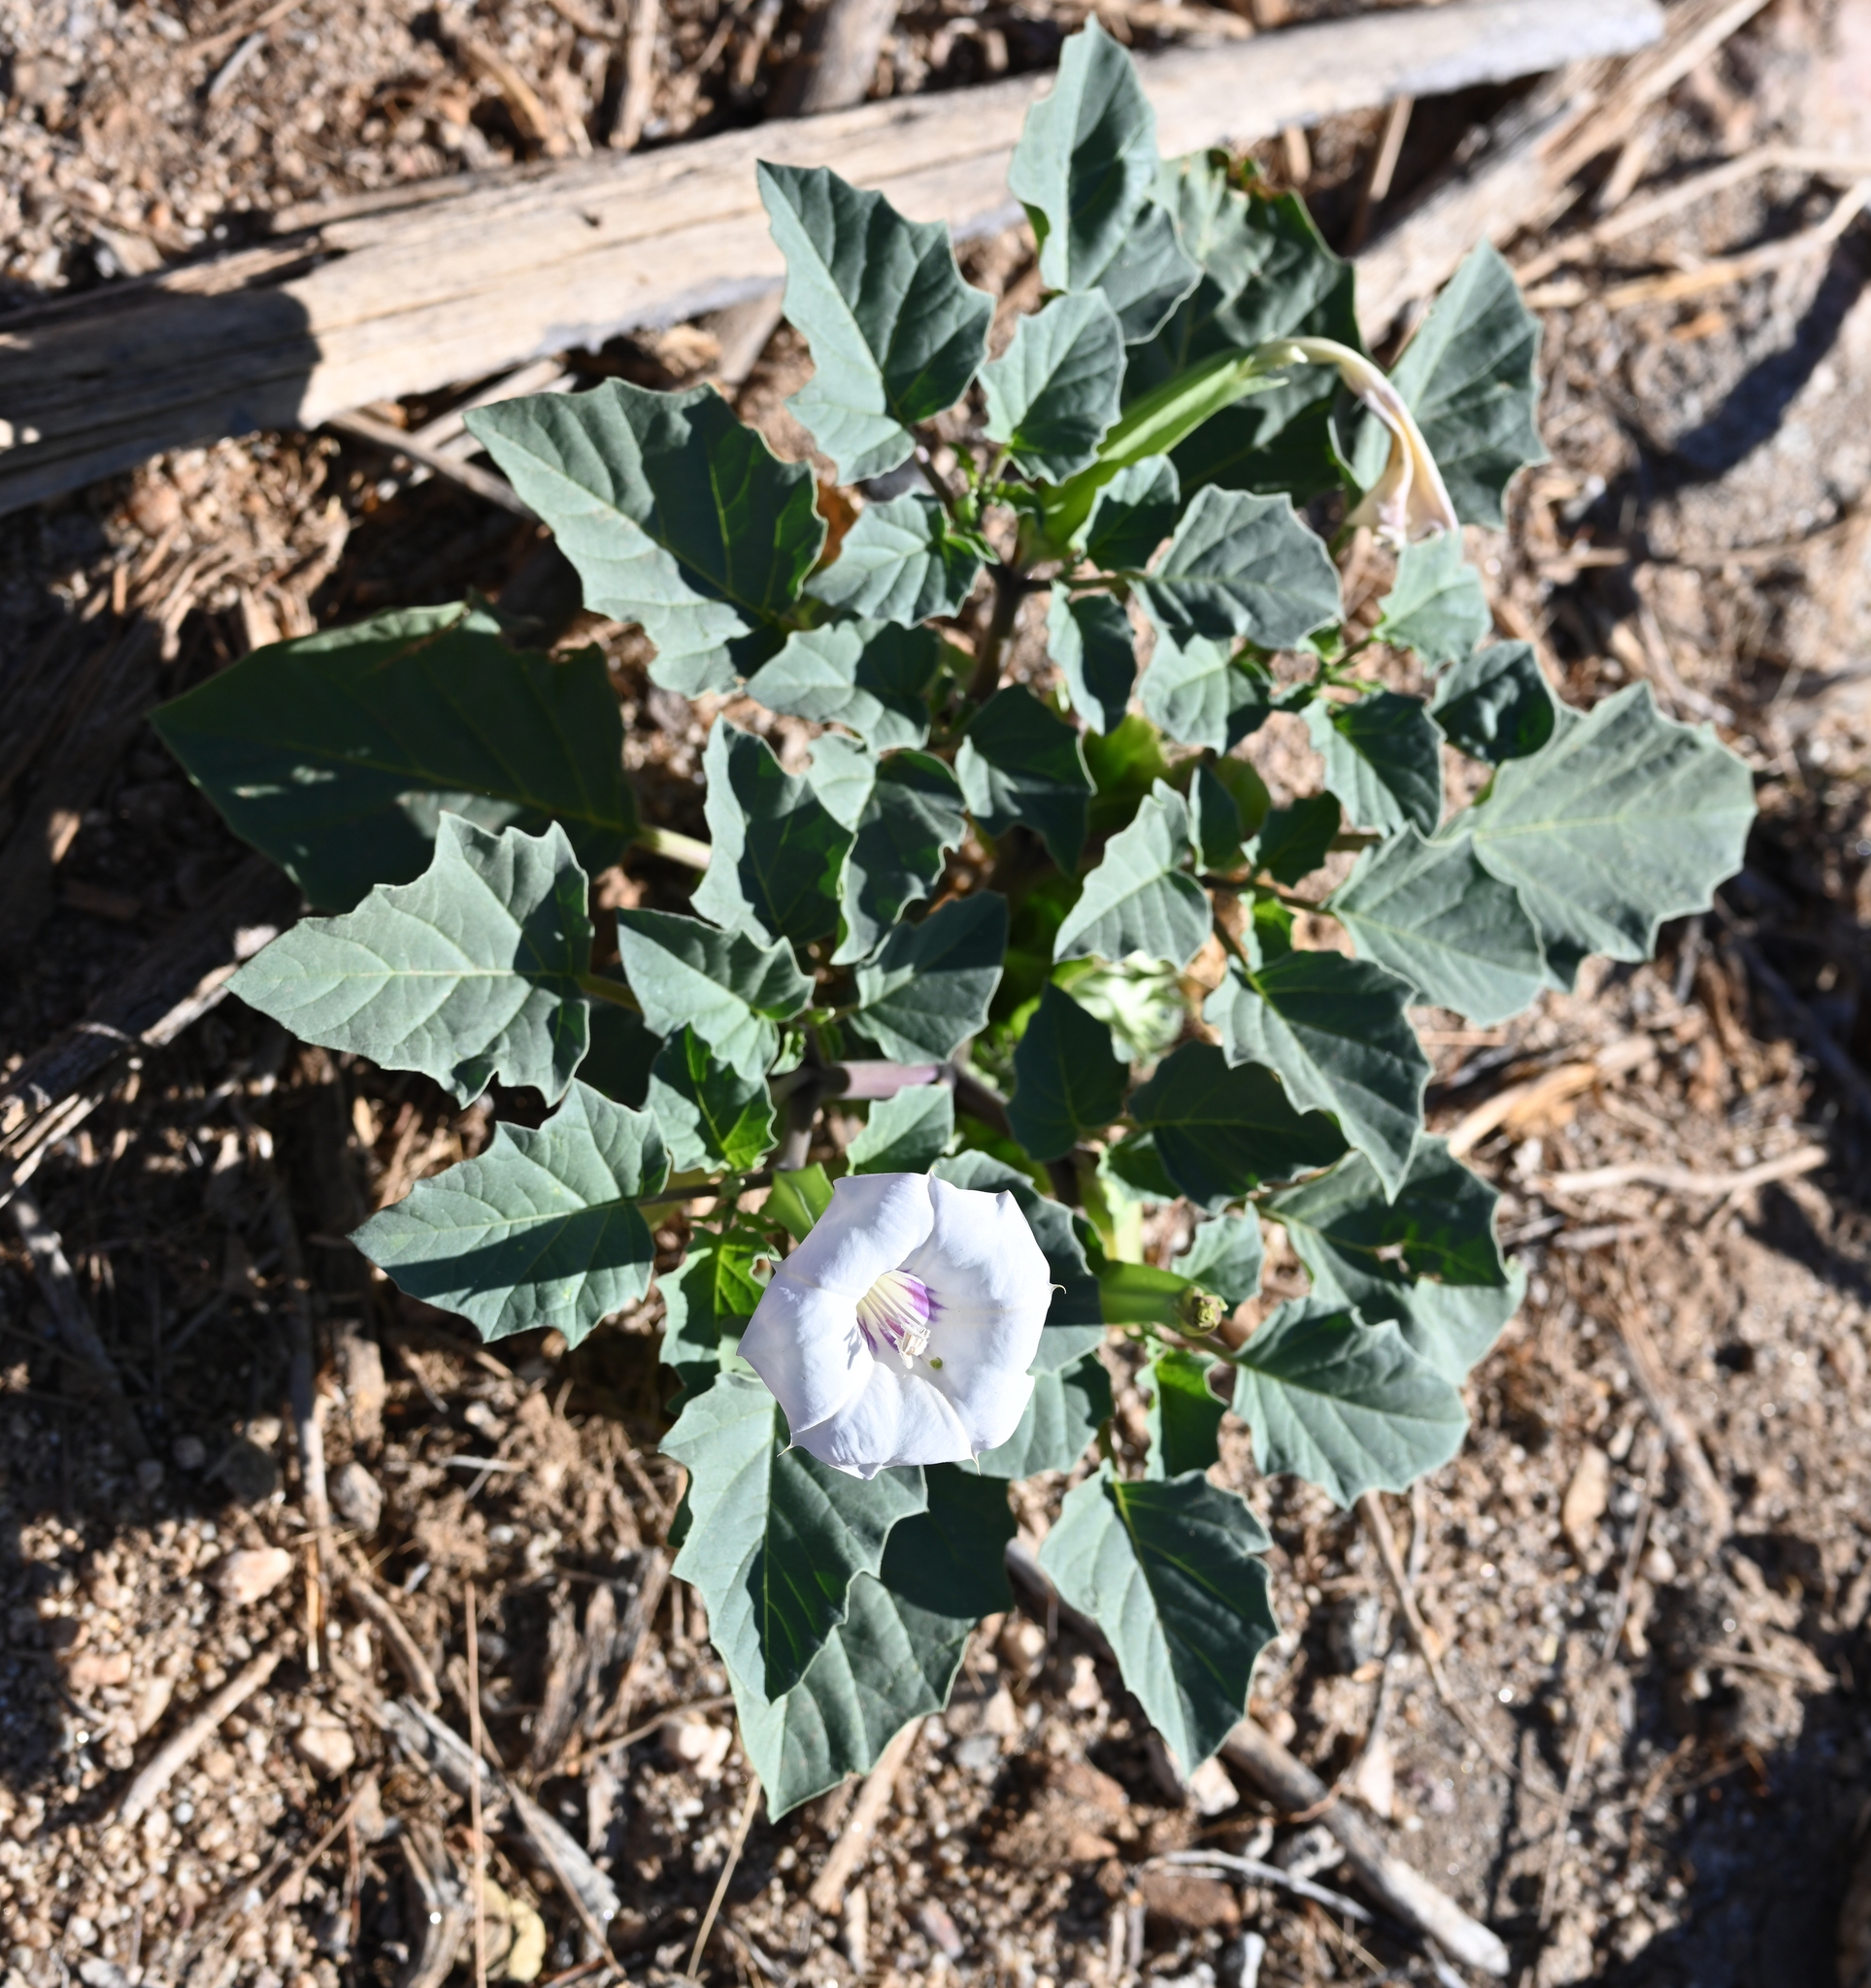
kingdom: Plantae
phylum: Tracheophyta
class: Magnoliopsida
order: Solanales
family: Solanaceae
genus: Datura
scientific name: Datura discolor
